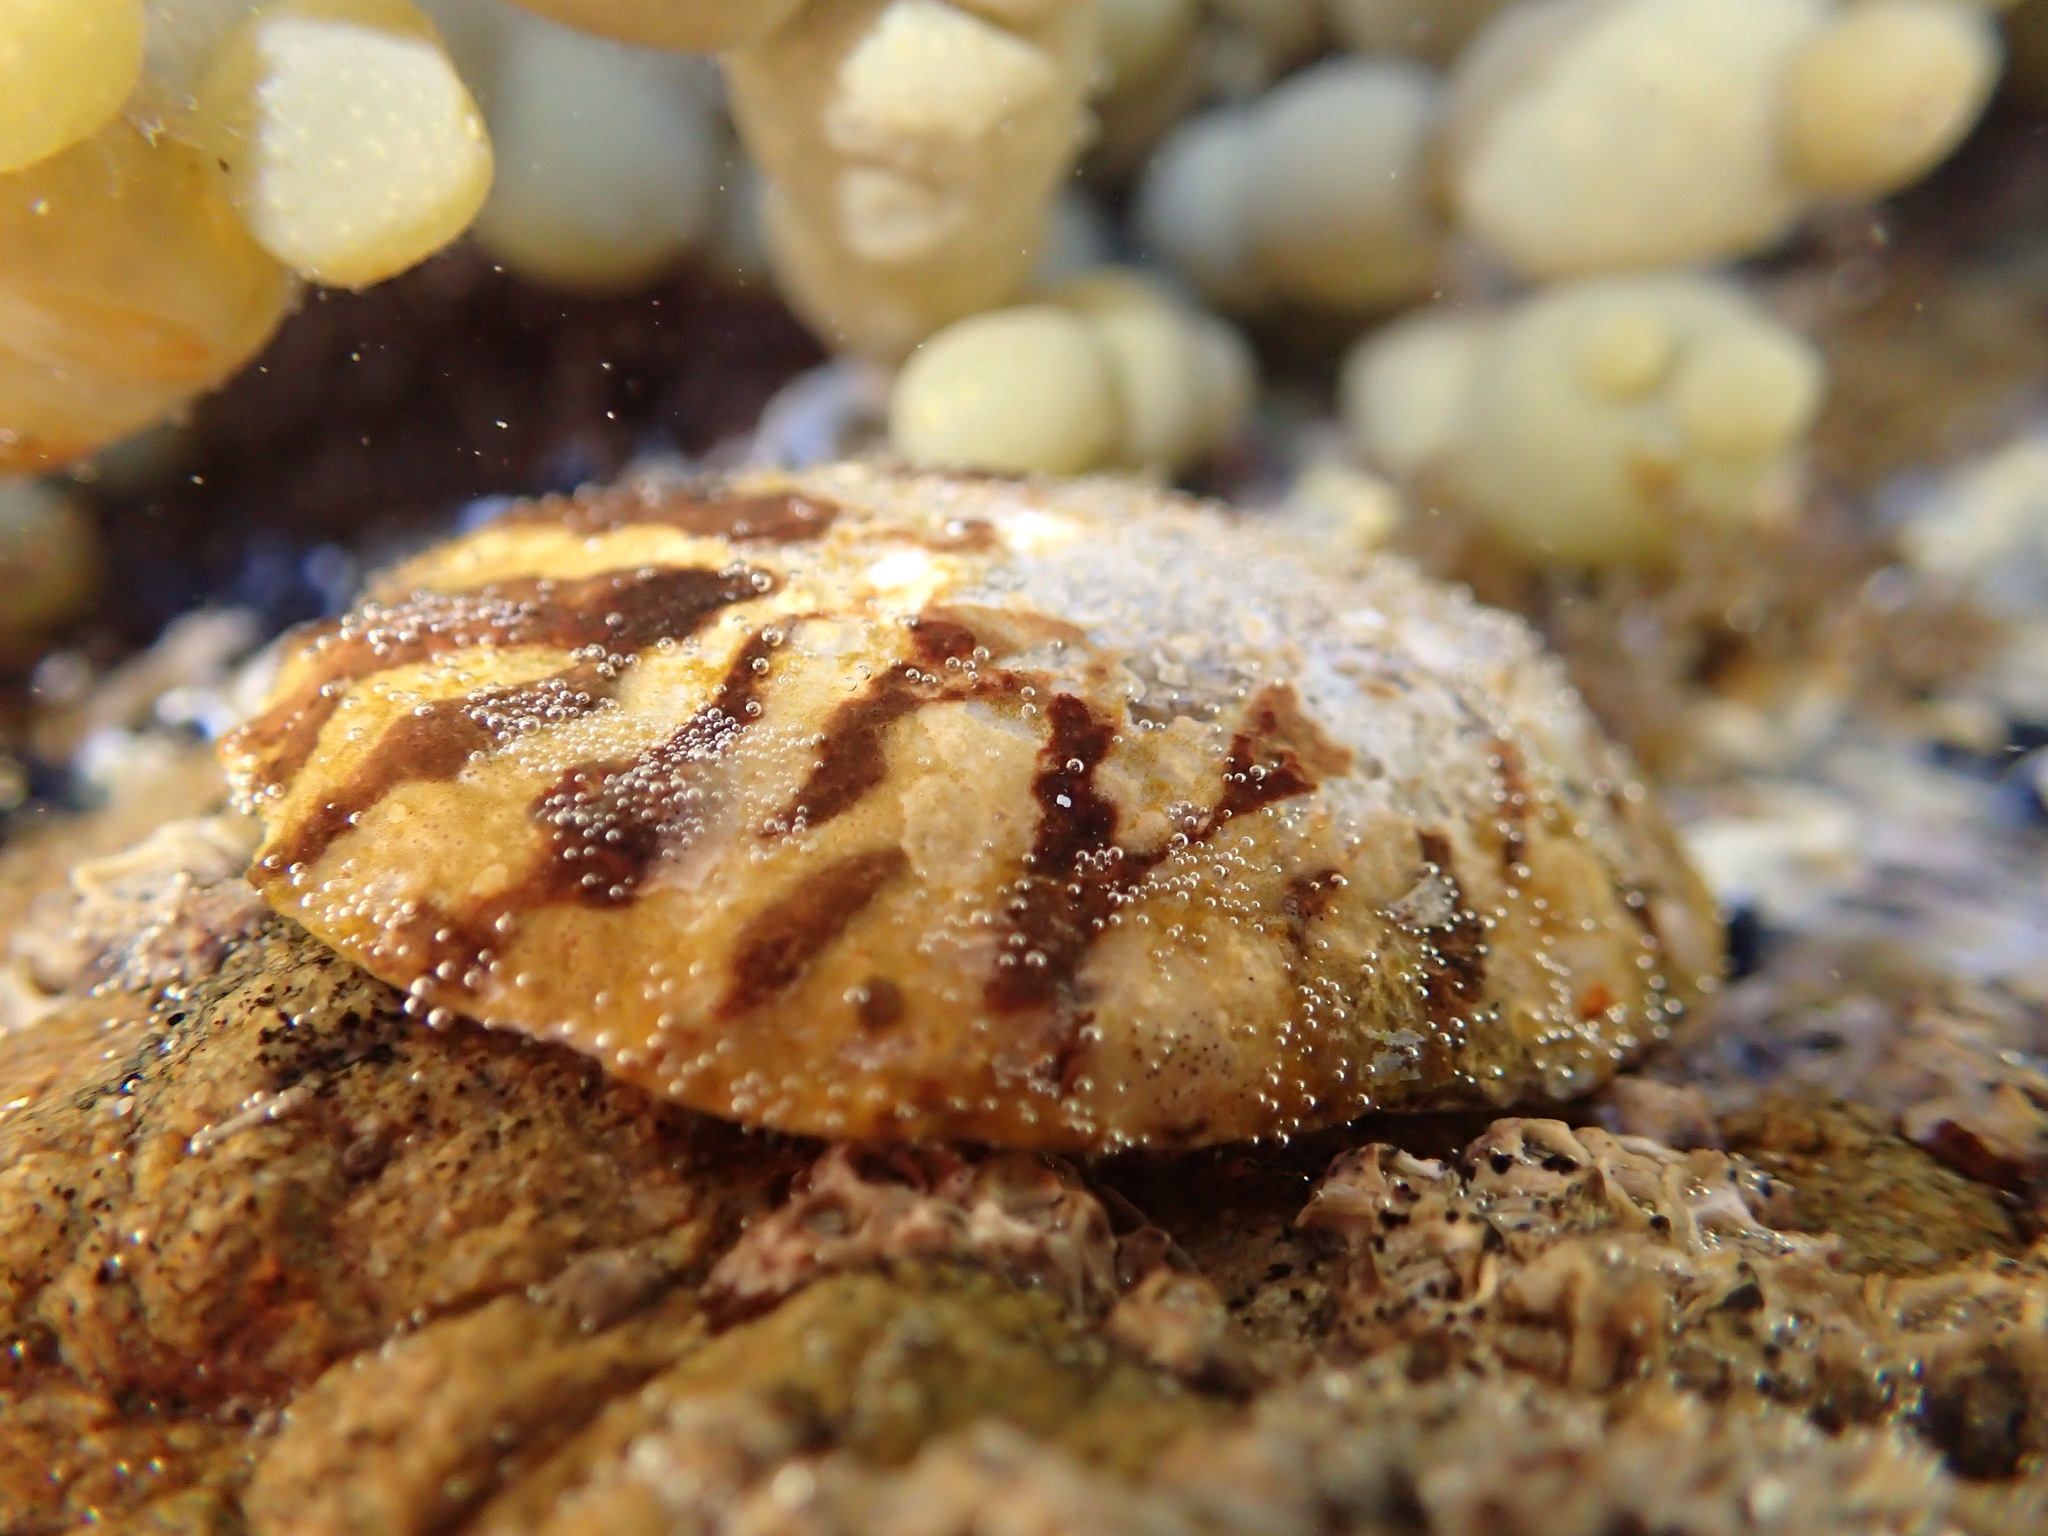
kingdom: Animalia
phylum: Mollusca
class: Gastropoda
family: Nacellidae
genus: Cellana
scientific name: Cellana radians
